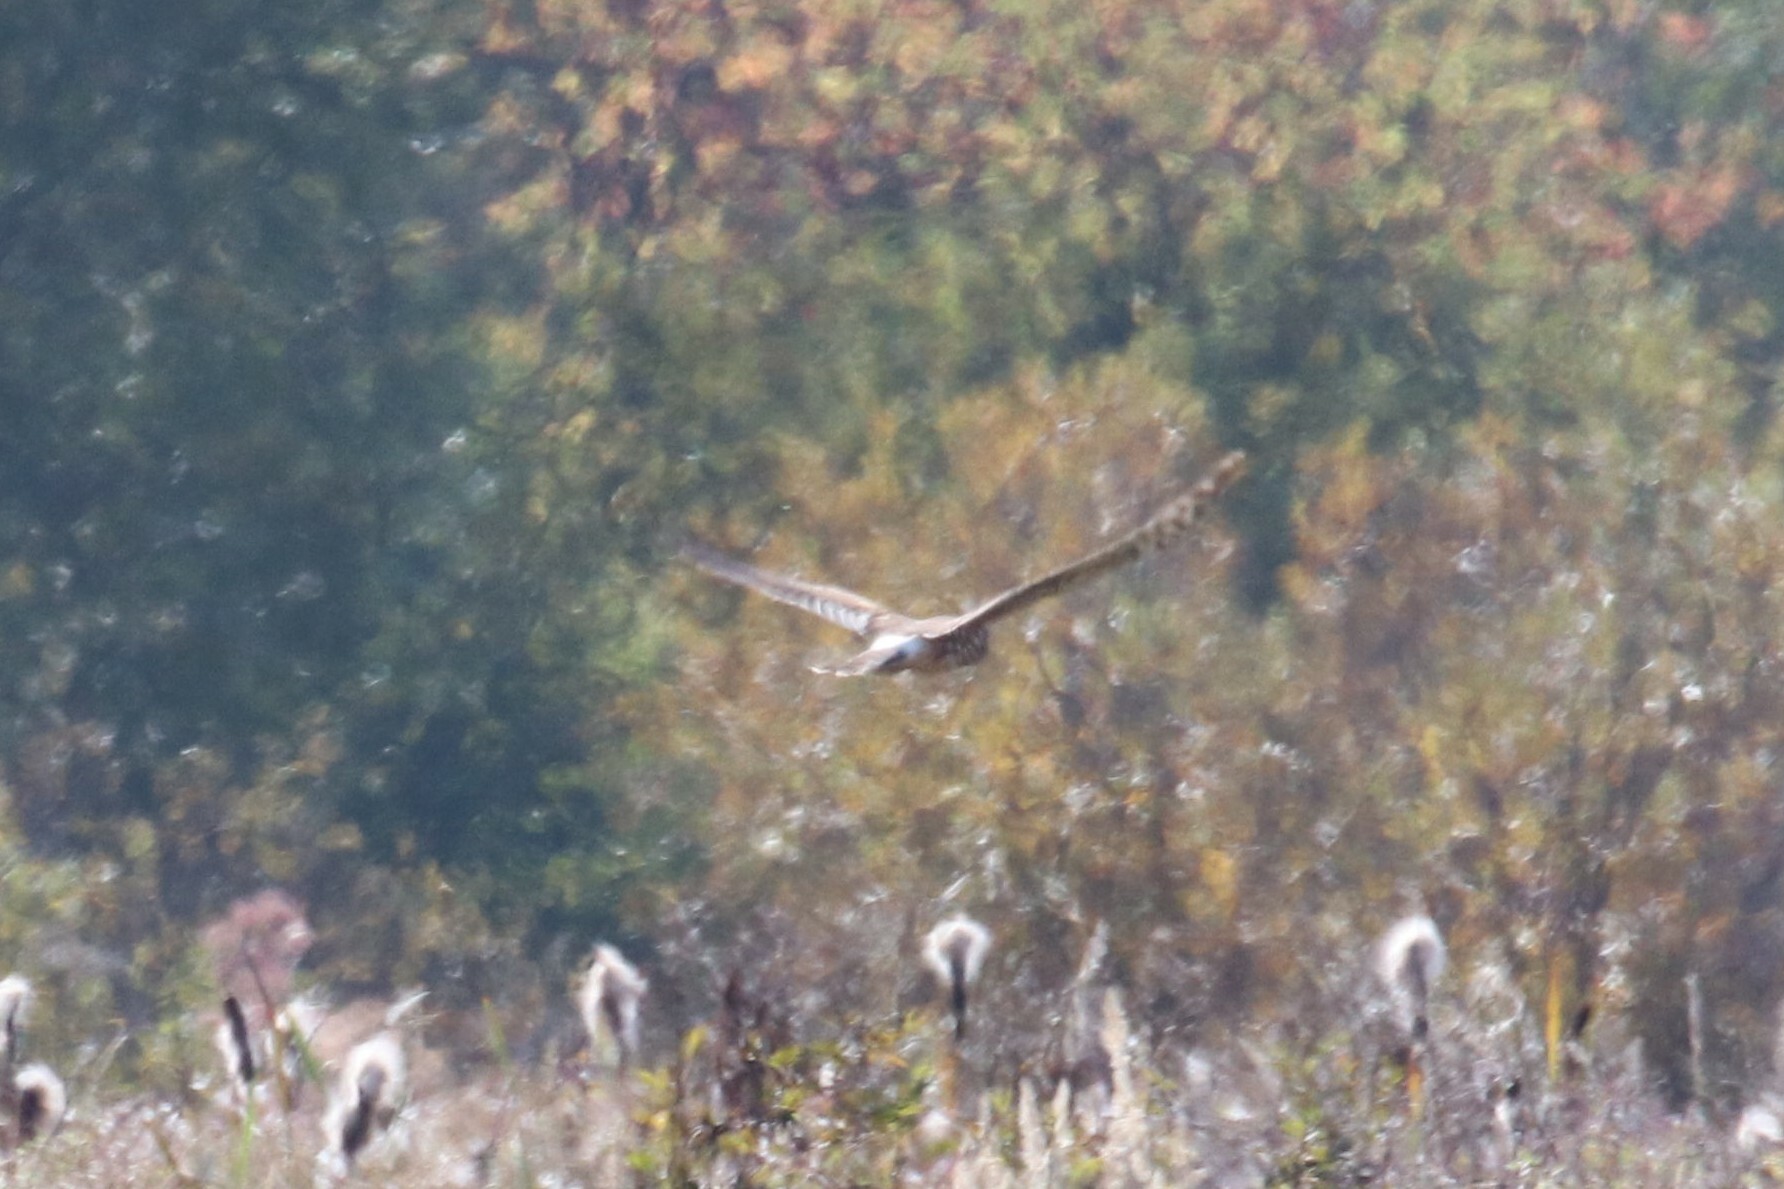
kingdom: Animalia
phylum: Chordata
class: Aves
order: Accipitriformes
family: Accipitridae
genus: Circus
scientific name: Circus cyaneus
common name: Hen harrier
